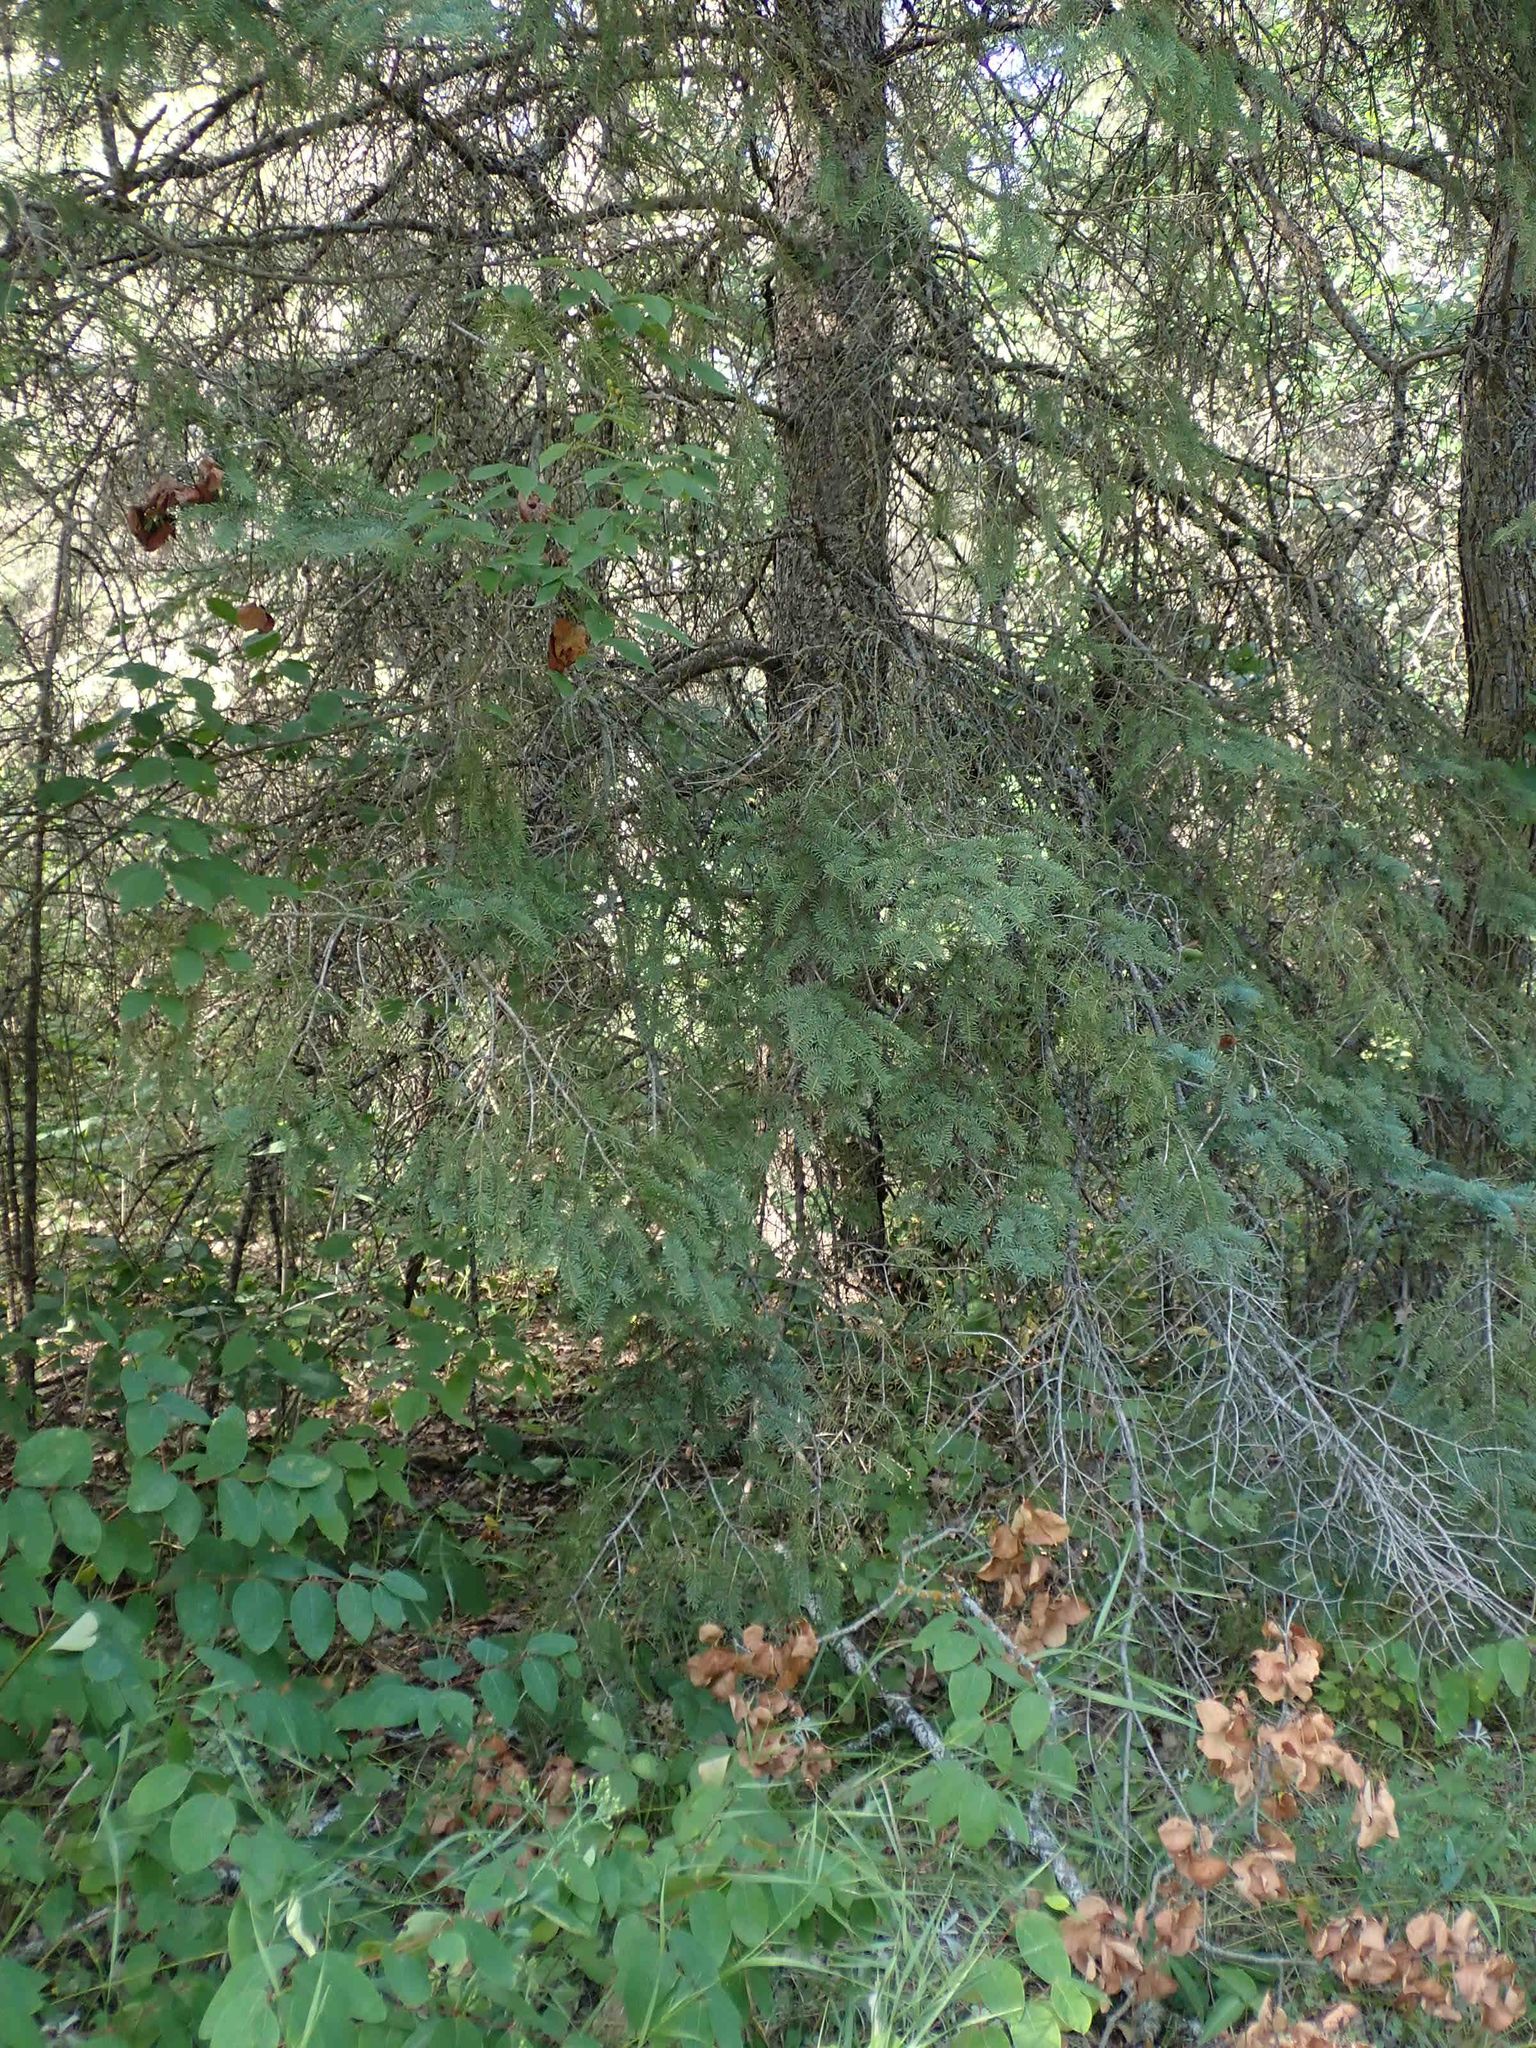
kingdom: Plantae
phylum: Tracheophyta
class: Pinopsida
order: Pinales
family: Pinaceae
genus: Picea
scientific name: Picea glauca
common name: White spruce
